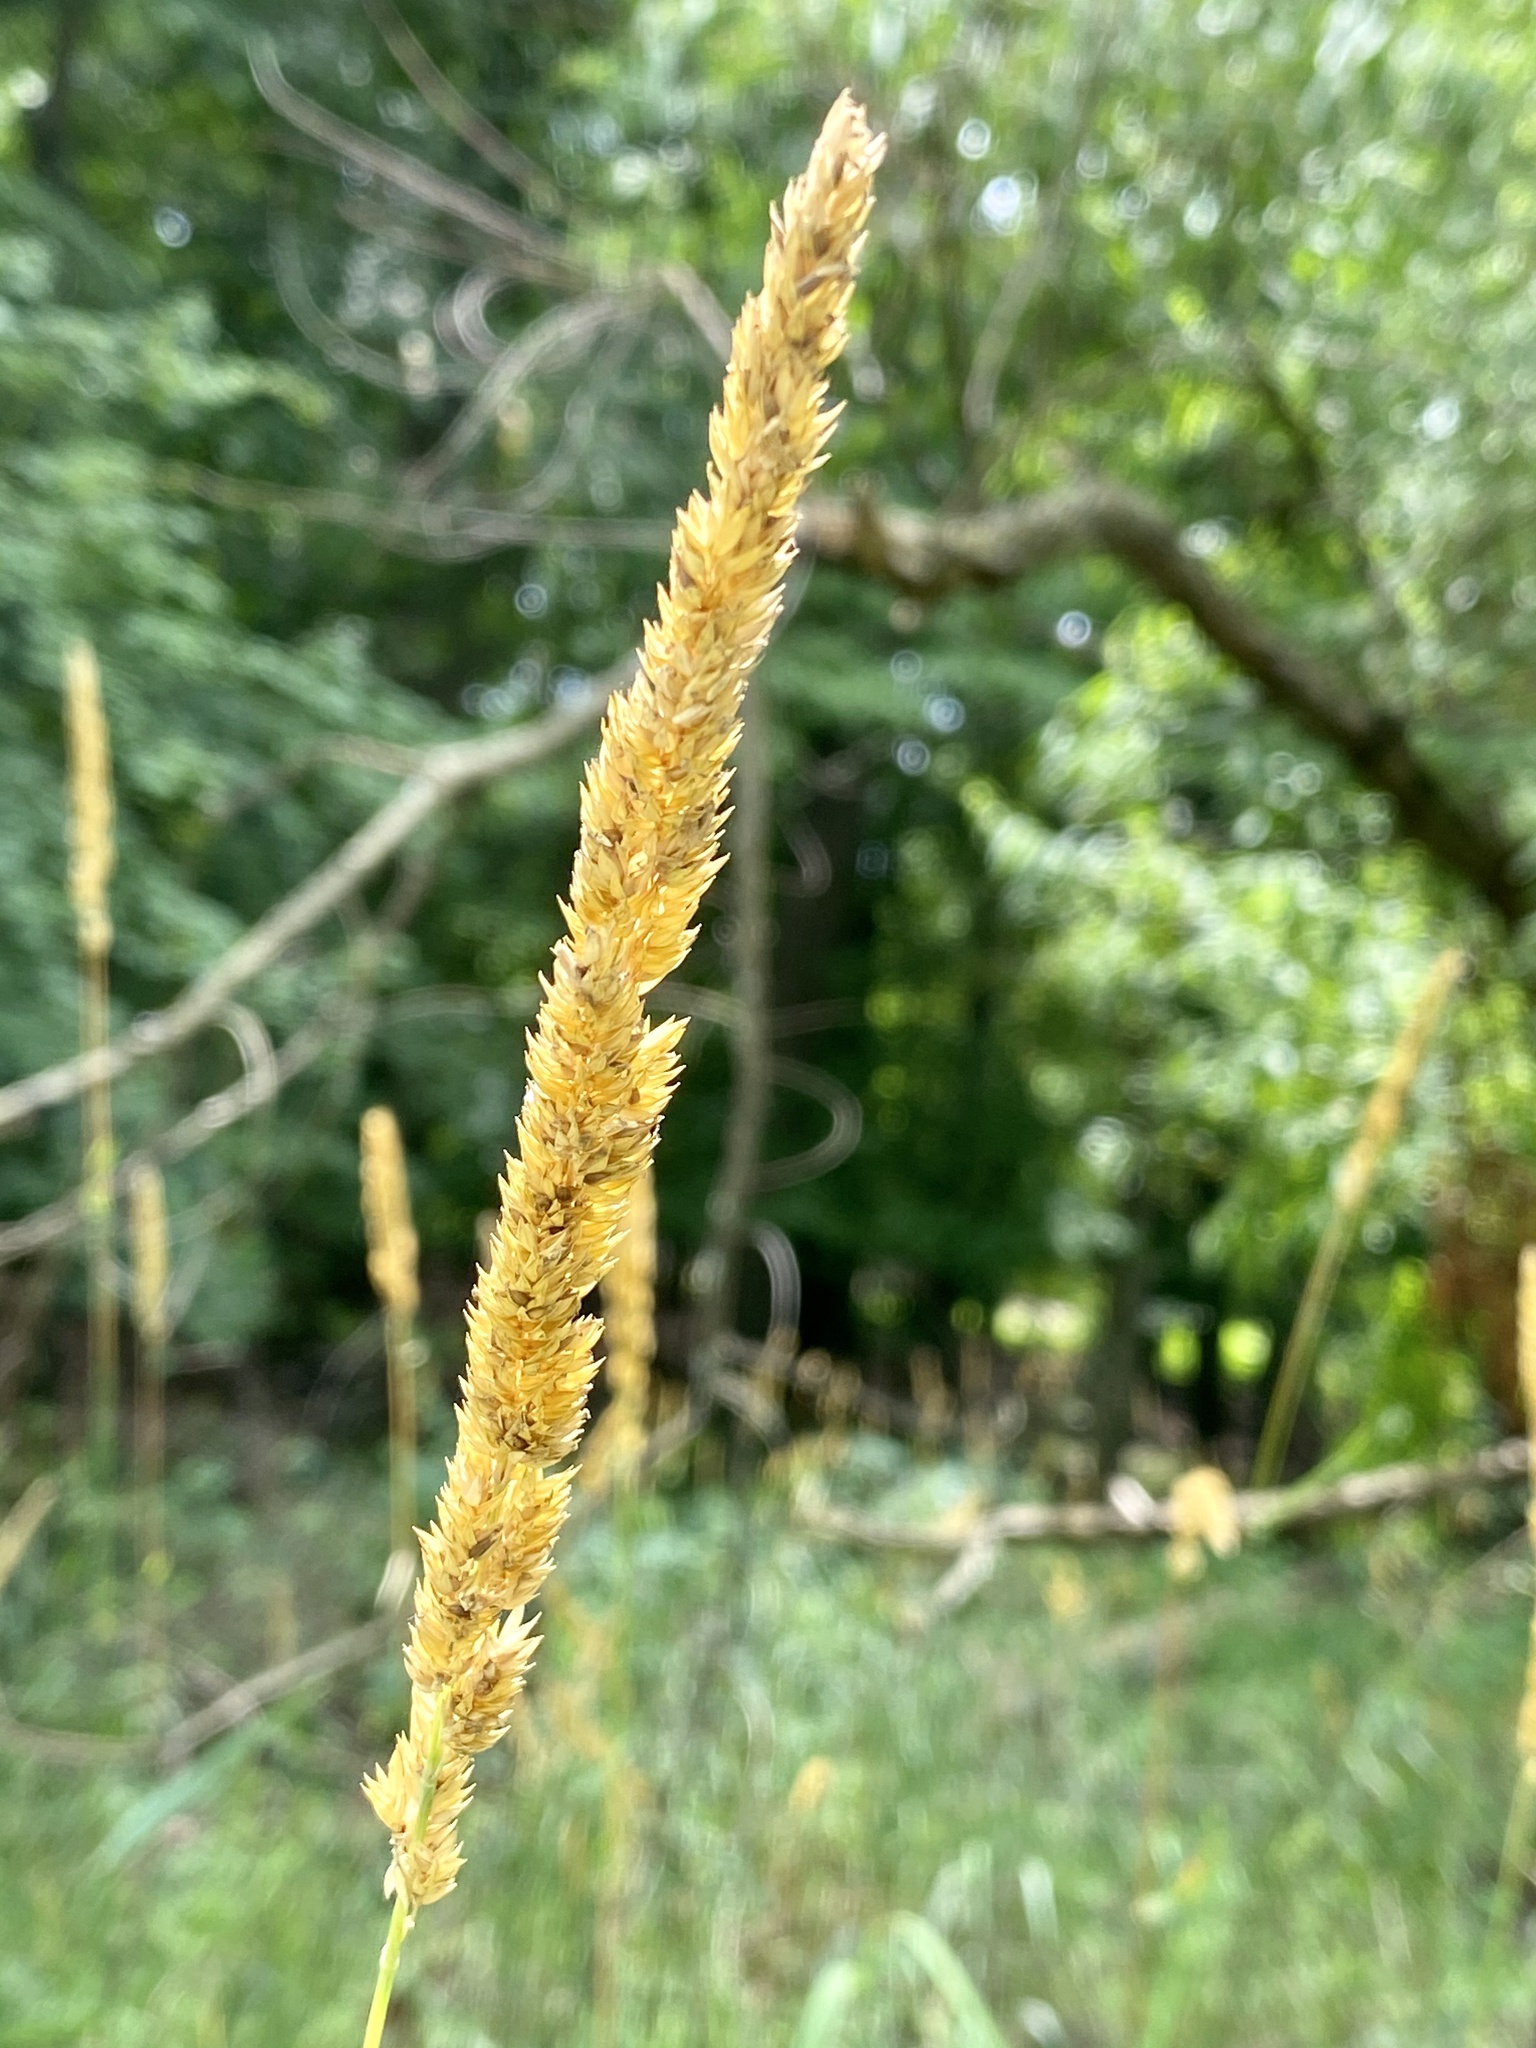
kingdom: Plantae
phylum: Tracheophyta
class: Liliopsida
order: Poales
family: Poaceae
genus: Phalaris
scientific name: Phalaris arundinacea
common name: Reed canary-grass
